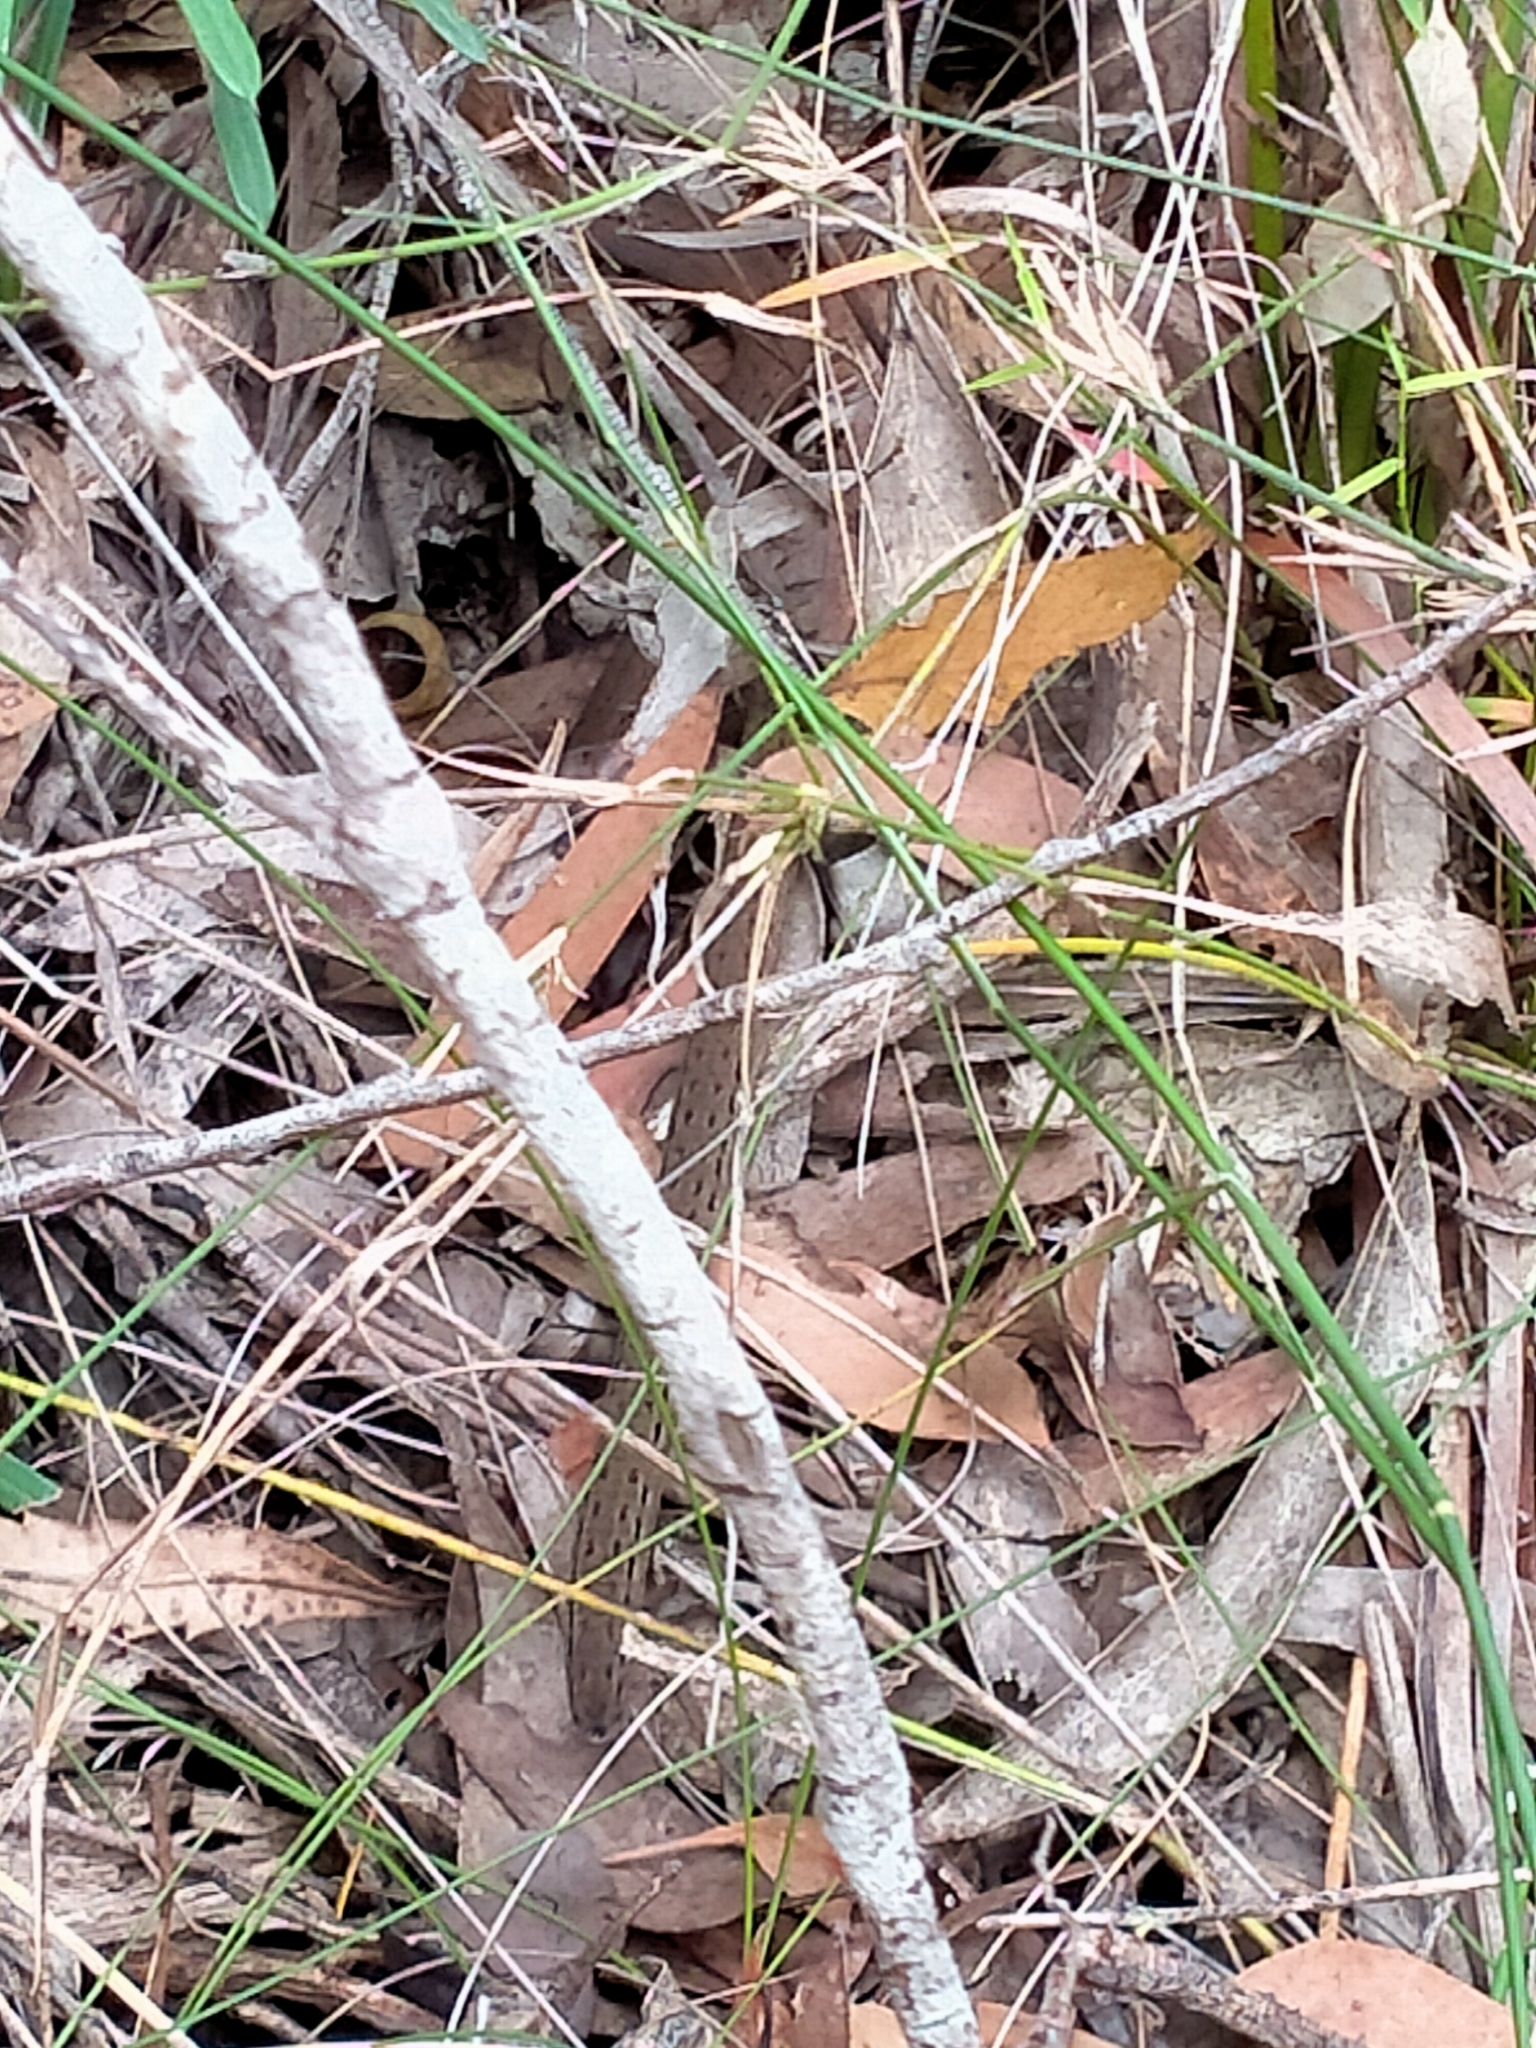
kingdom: Animalia
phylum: Chordata
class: Squamata
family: Pygopodidae
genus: Pygopus
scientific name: Pygopus lepidopodus
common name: Southern scaly-foot
